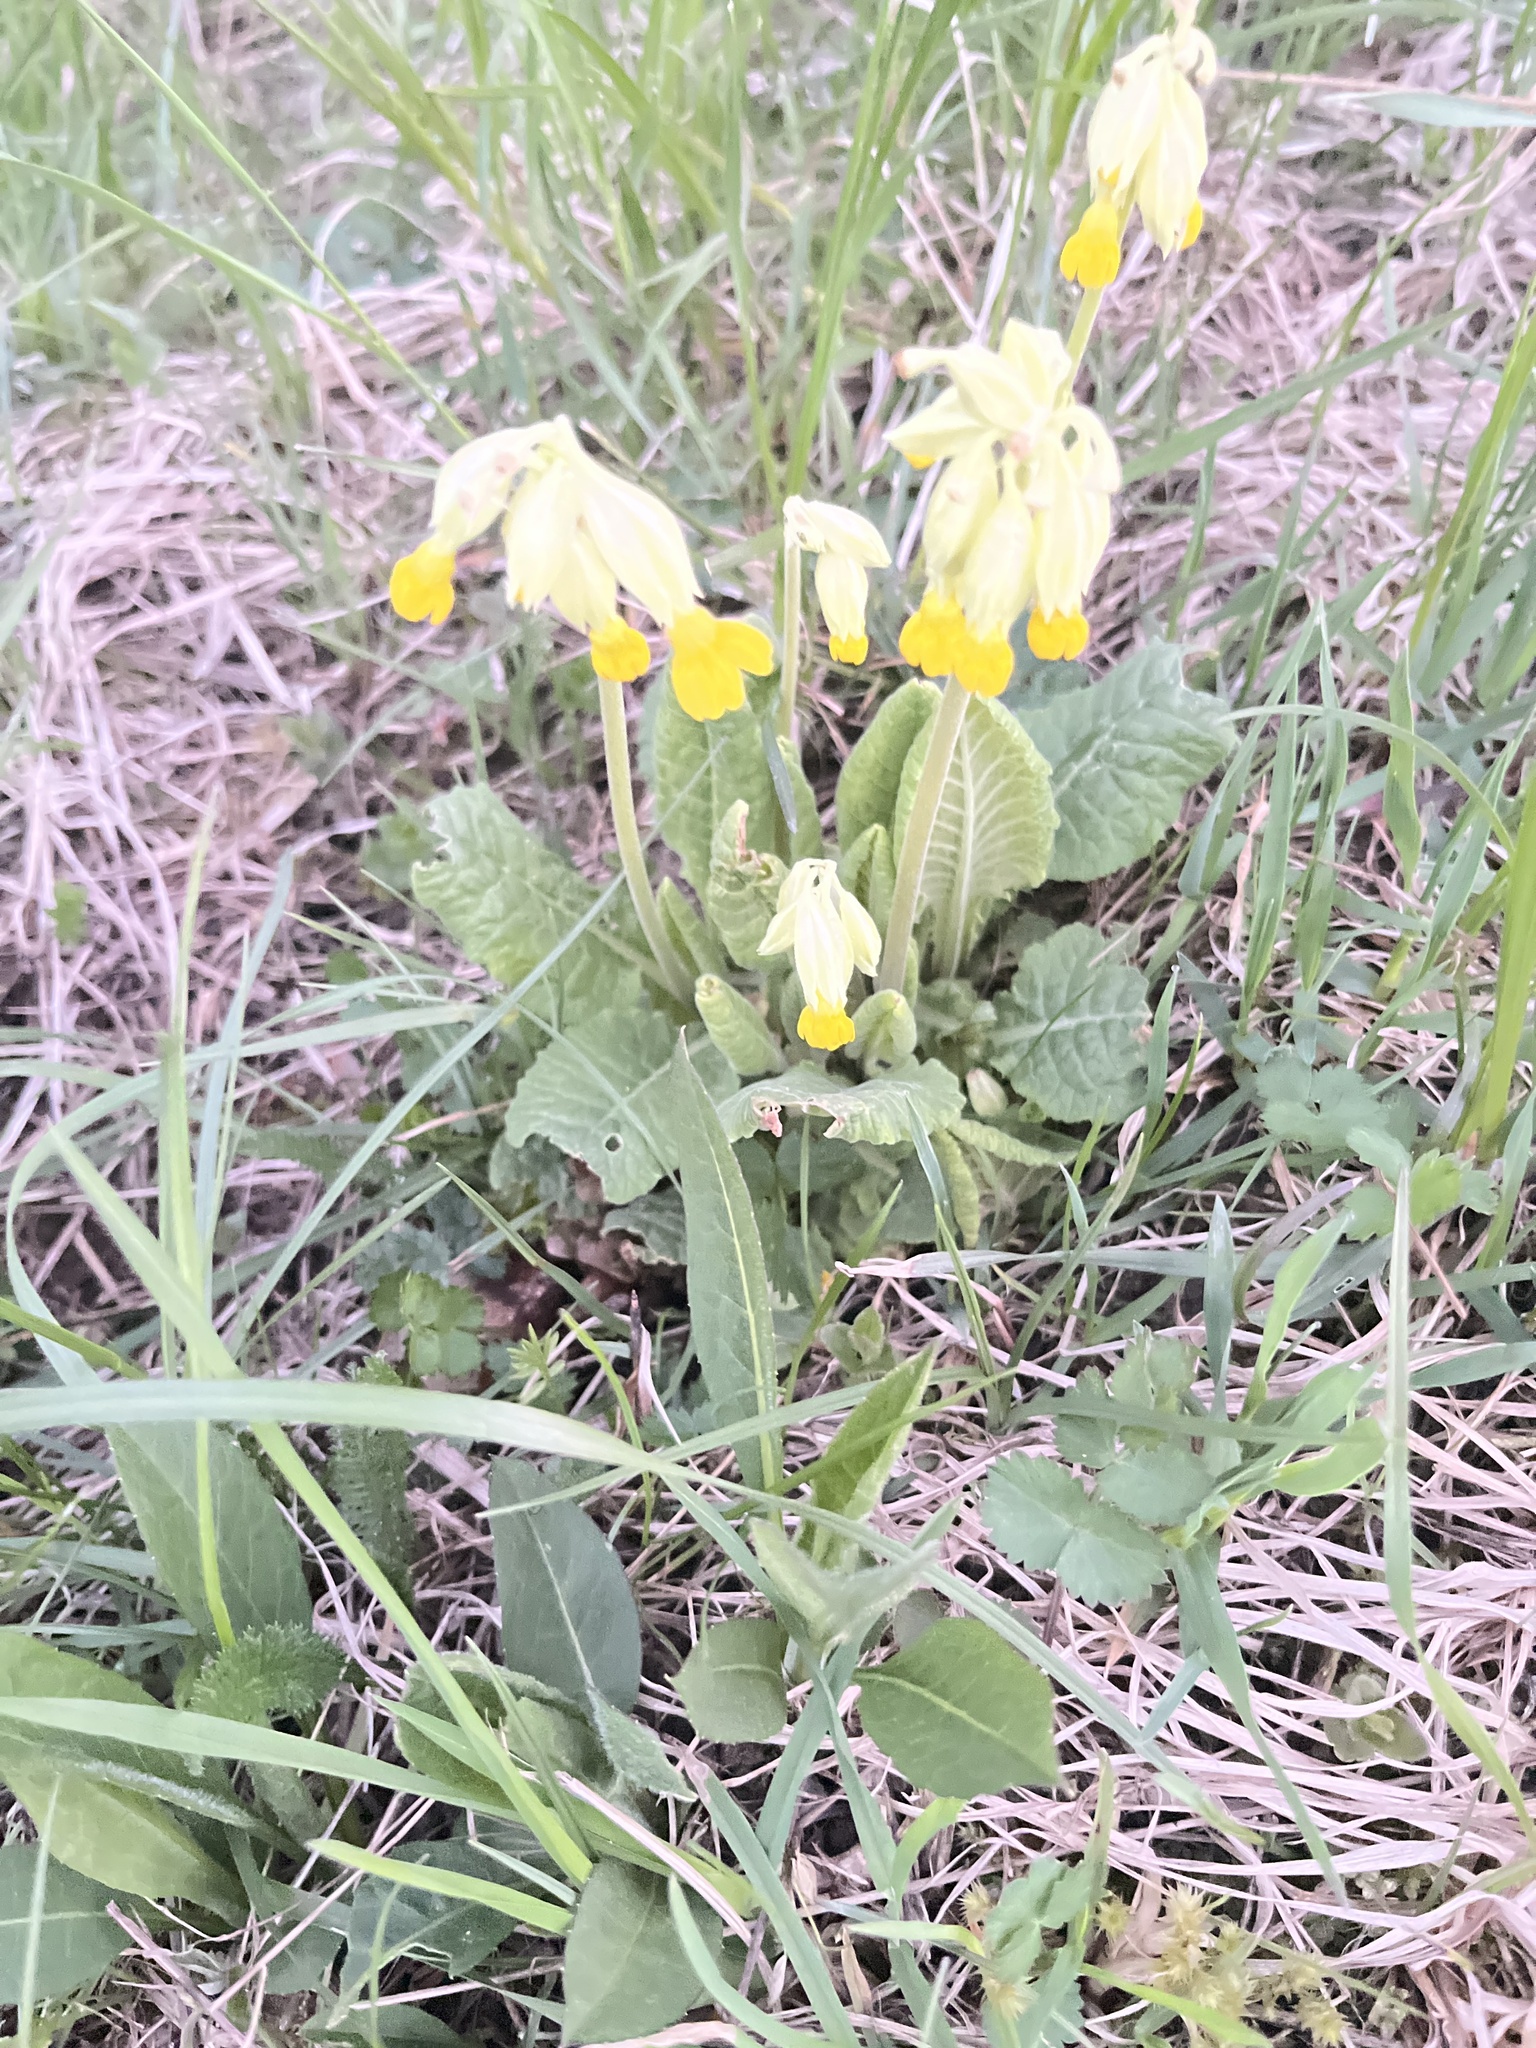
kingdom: Plantae
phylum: Tracheophyta
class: Magnoliopsida
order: Ericales
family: Primulaceae
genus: Primula
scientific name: Primula veris
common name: Cowslip
